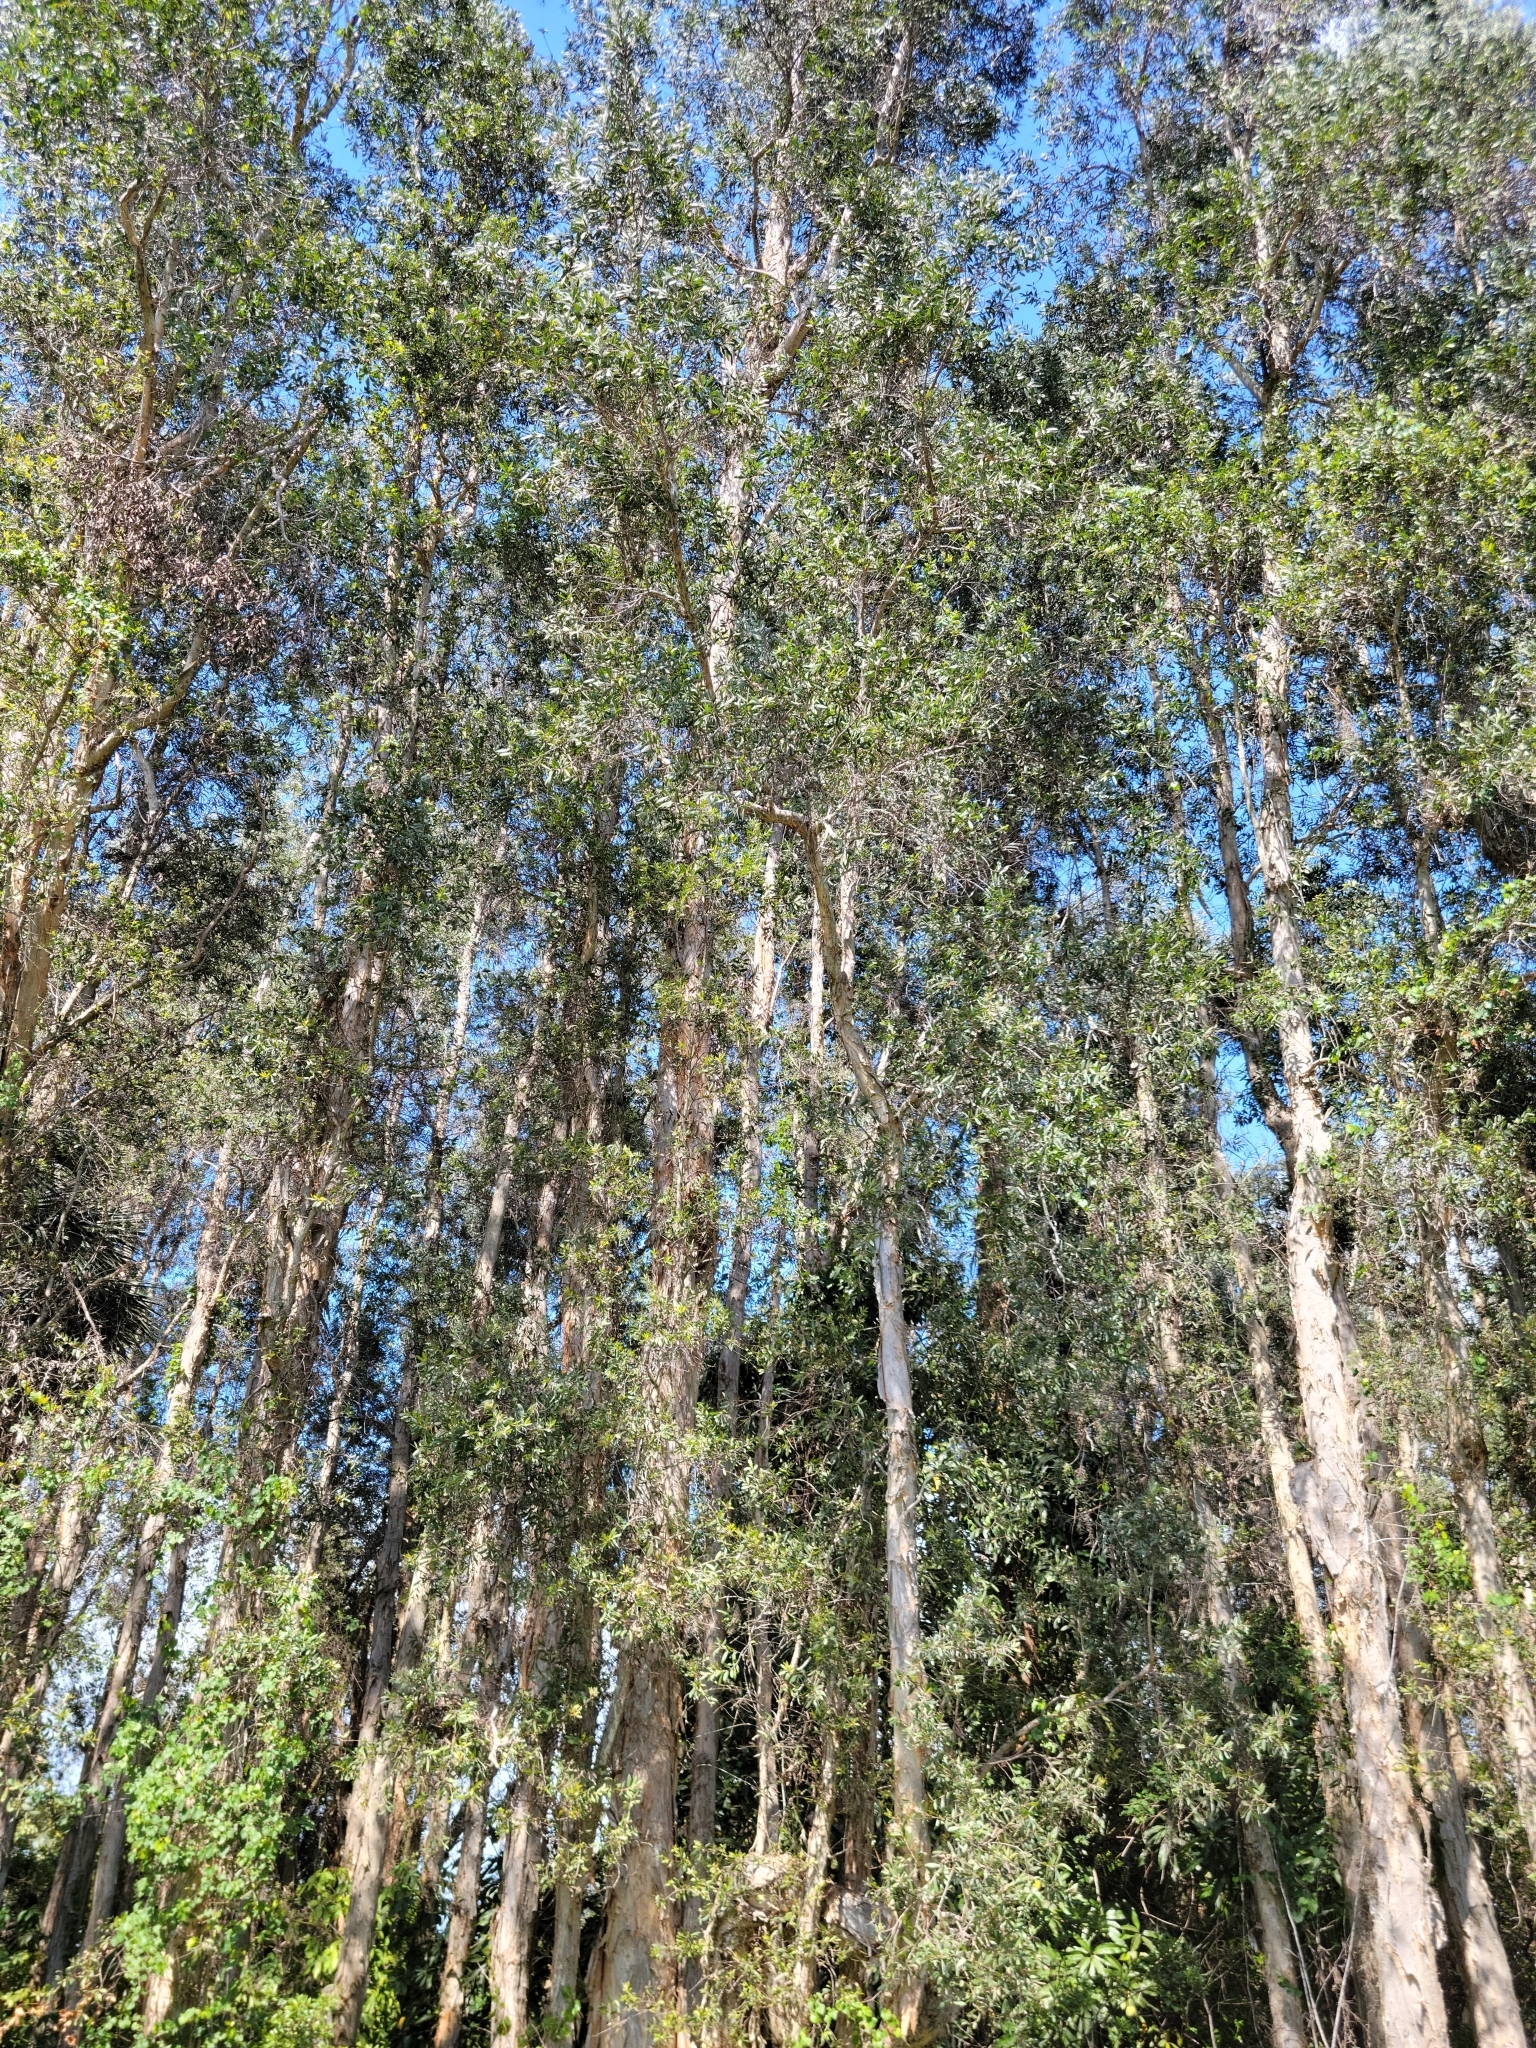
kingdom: Plantae
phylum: Tracheophyta
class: Magnoliopsida
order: Myrtales
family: Myrtaceae
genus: Melaleuca
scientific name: Melaleuca quinquenervia
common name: Punktree
